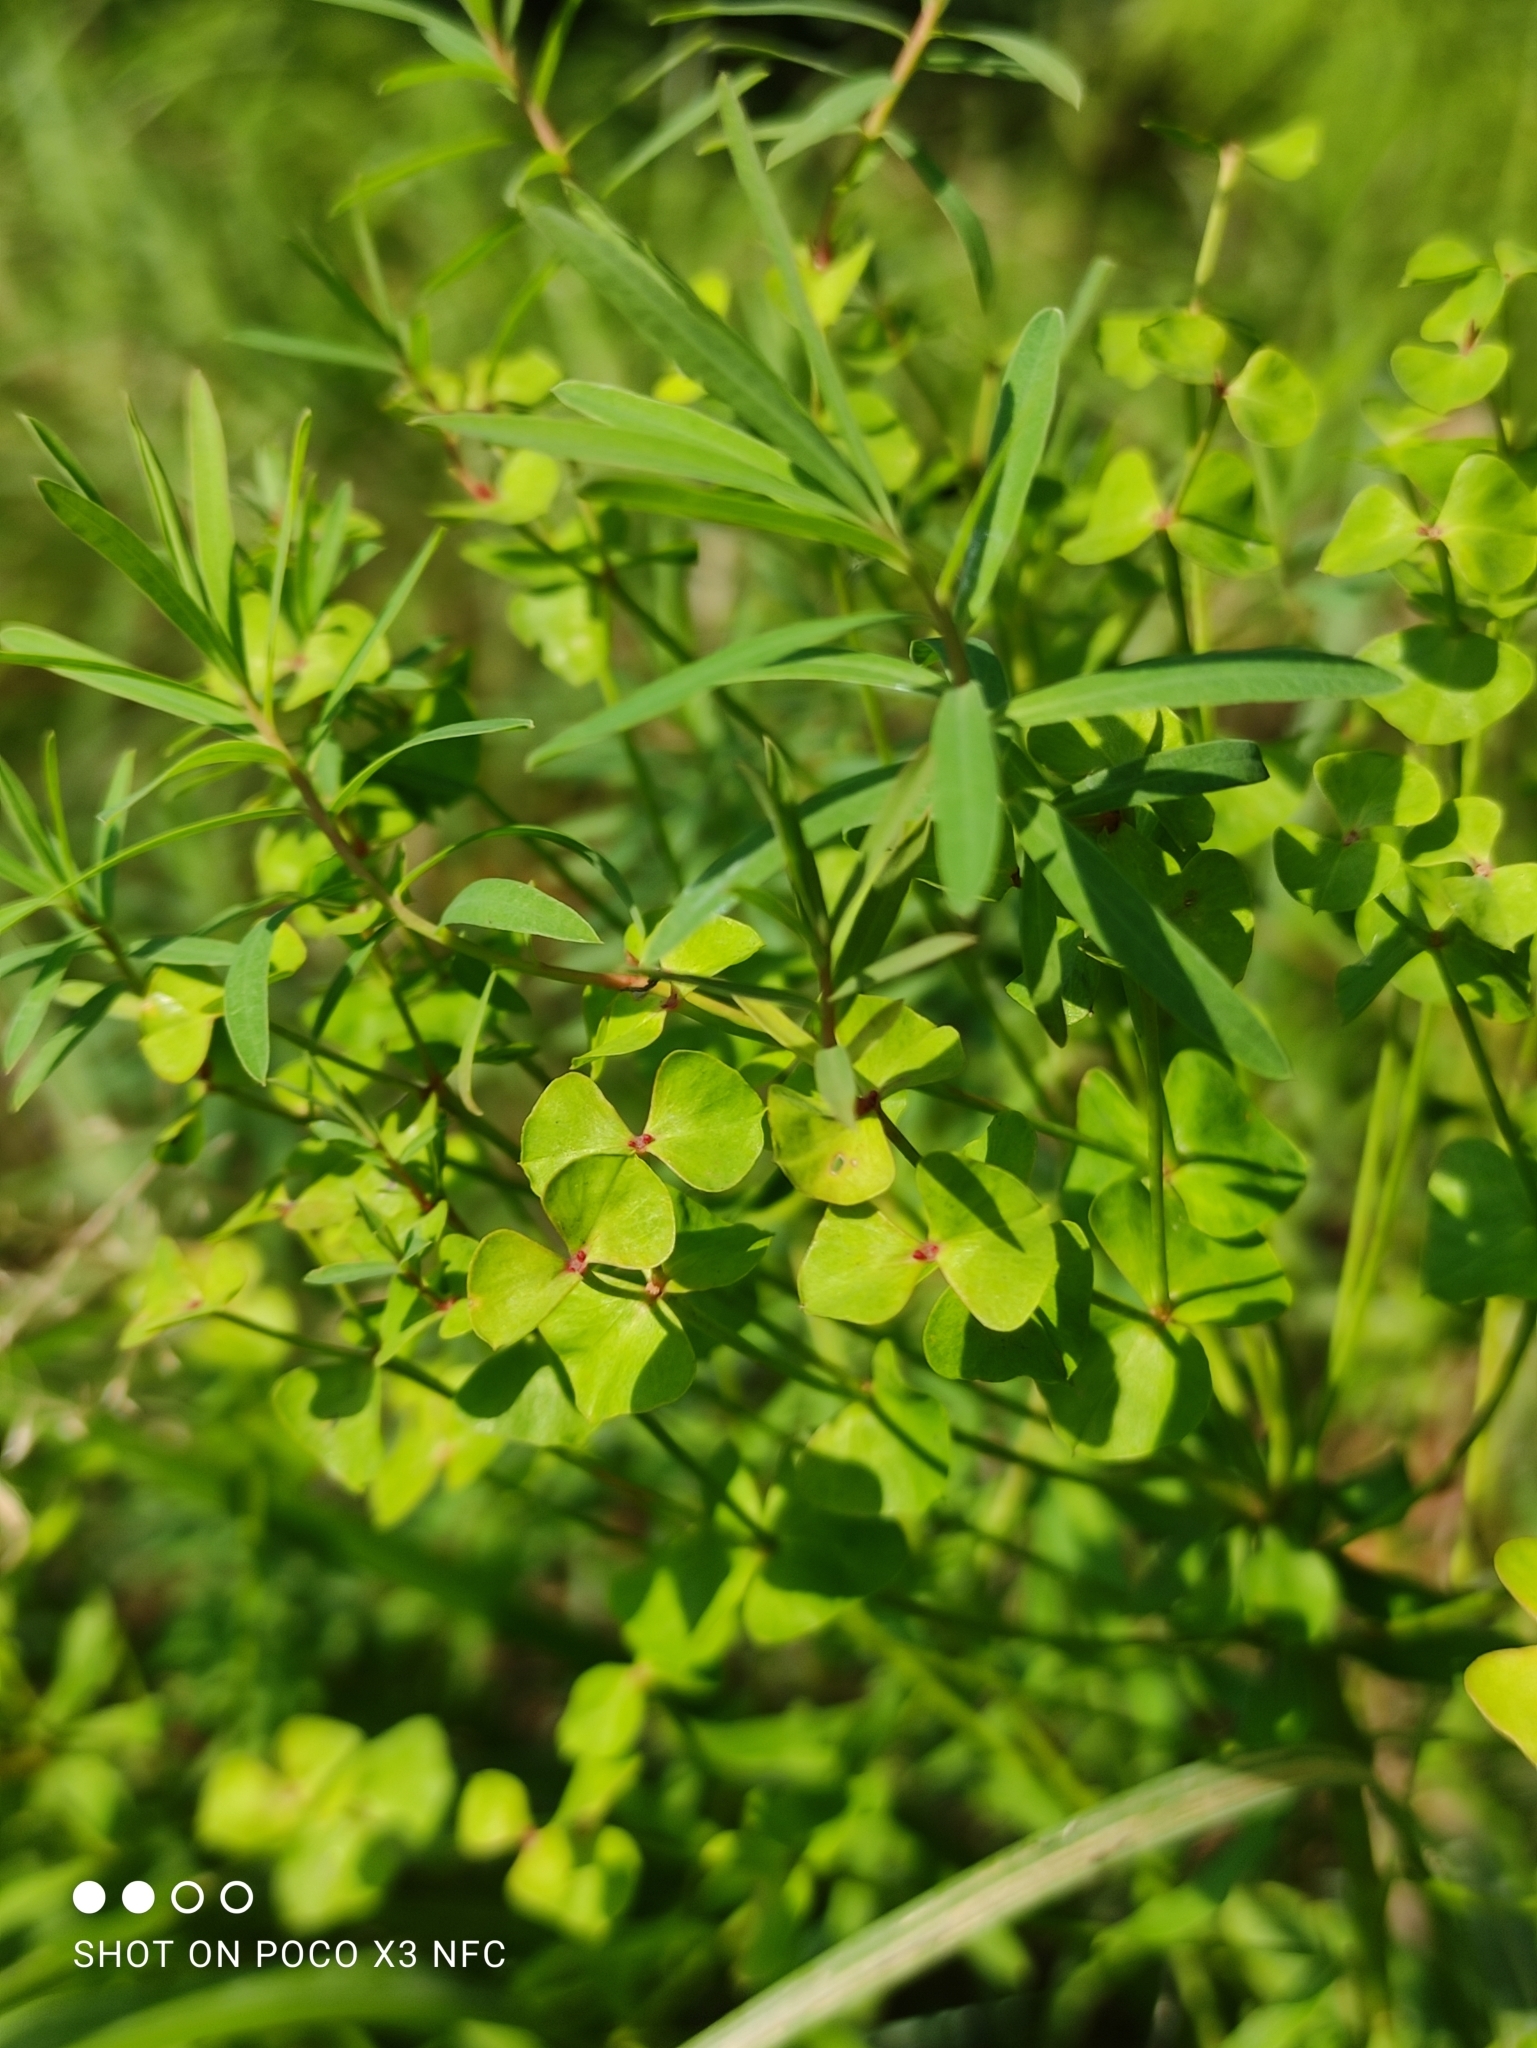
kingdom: Plantae
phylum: Tracheophyta
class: Magnoliopsida
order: Malpighiales
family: Euphorbiaceae
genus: Euphorbia
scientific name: Euphorbia virgata
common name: Leafy spurge
